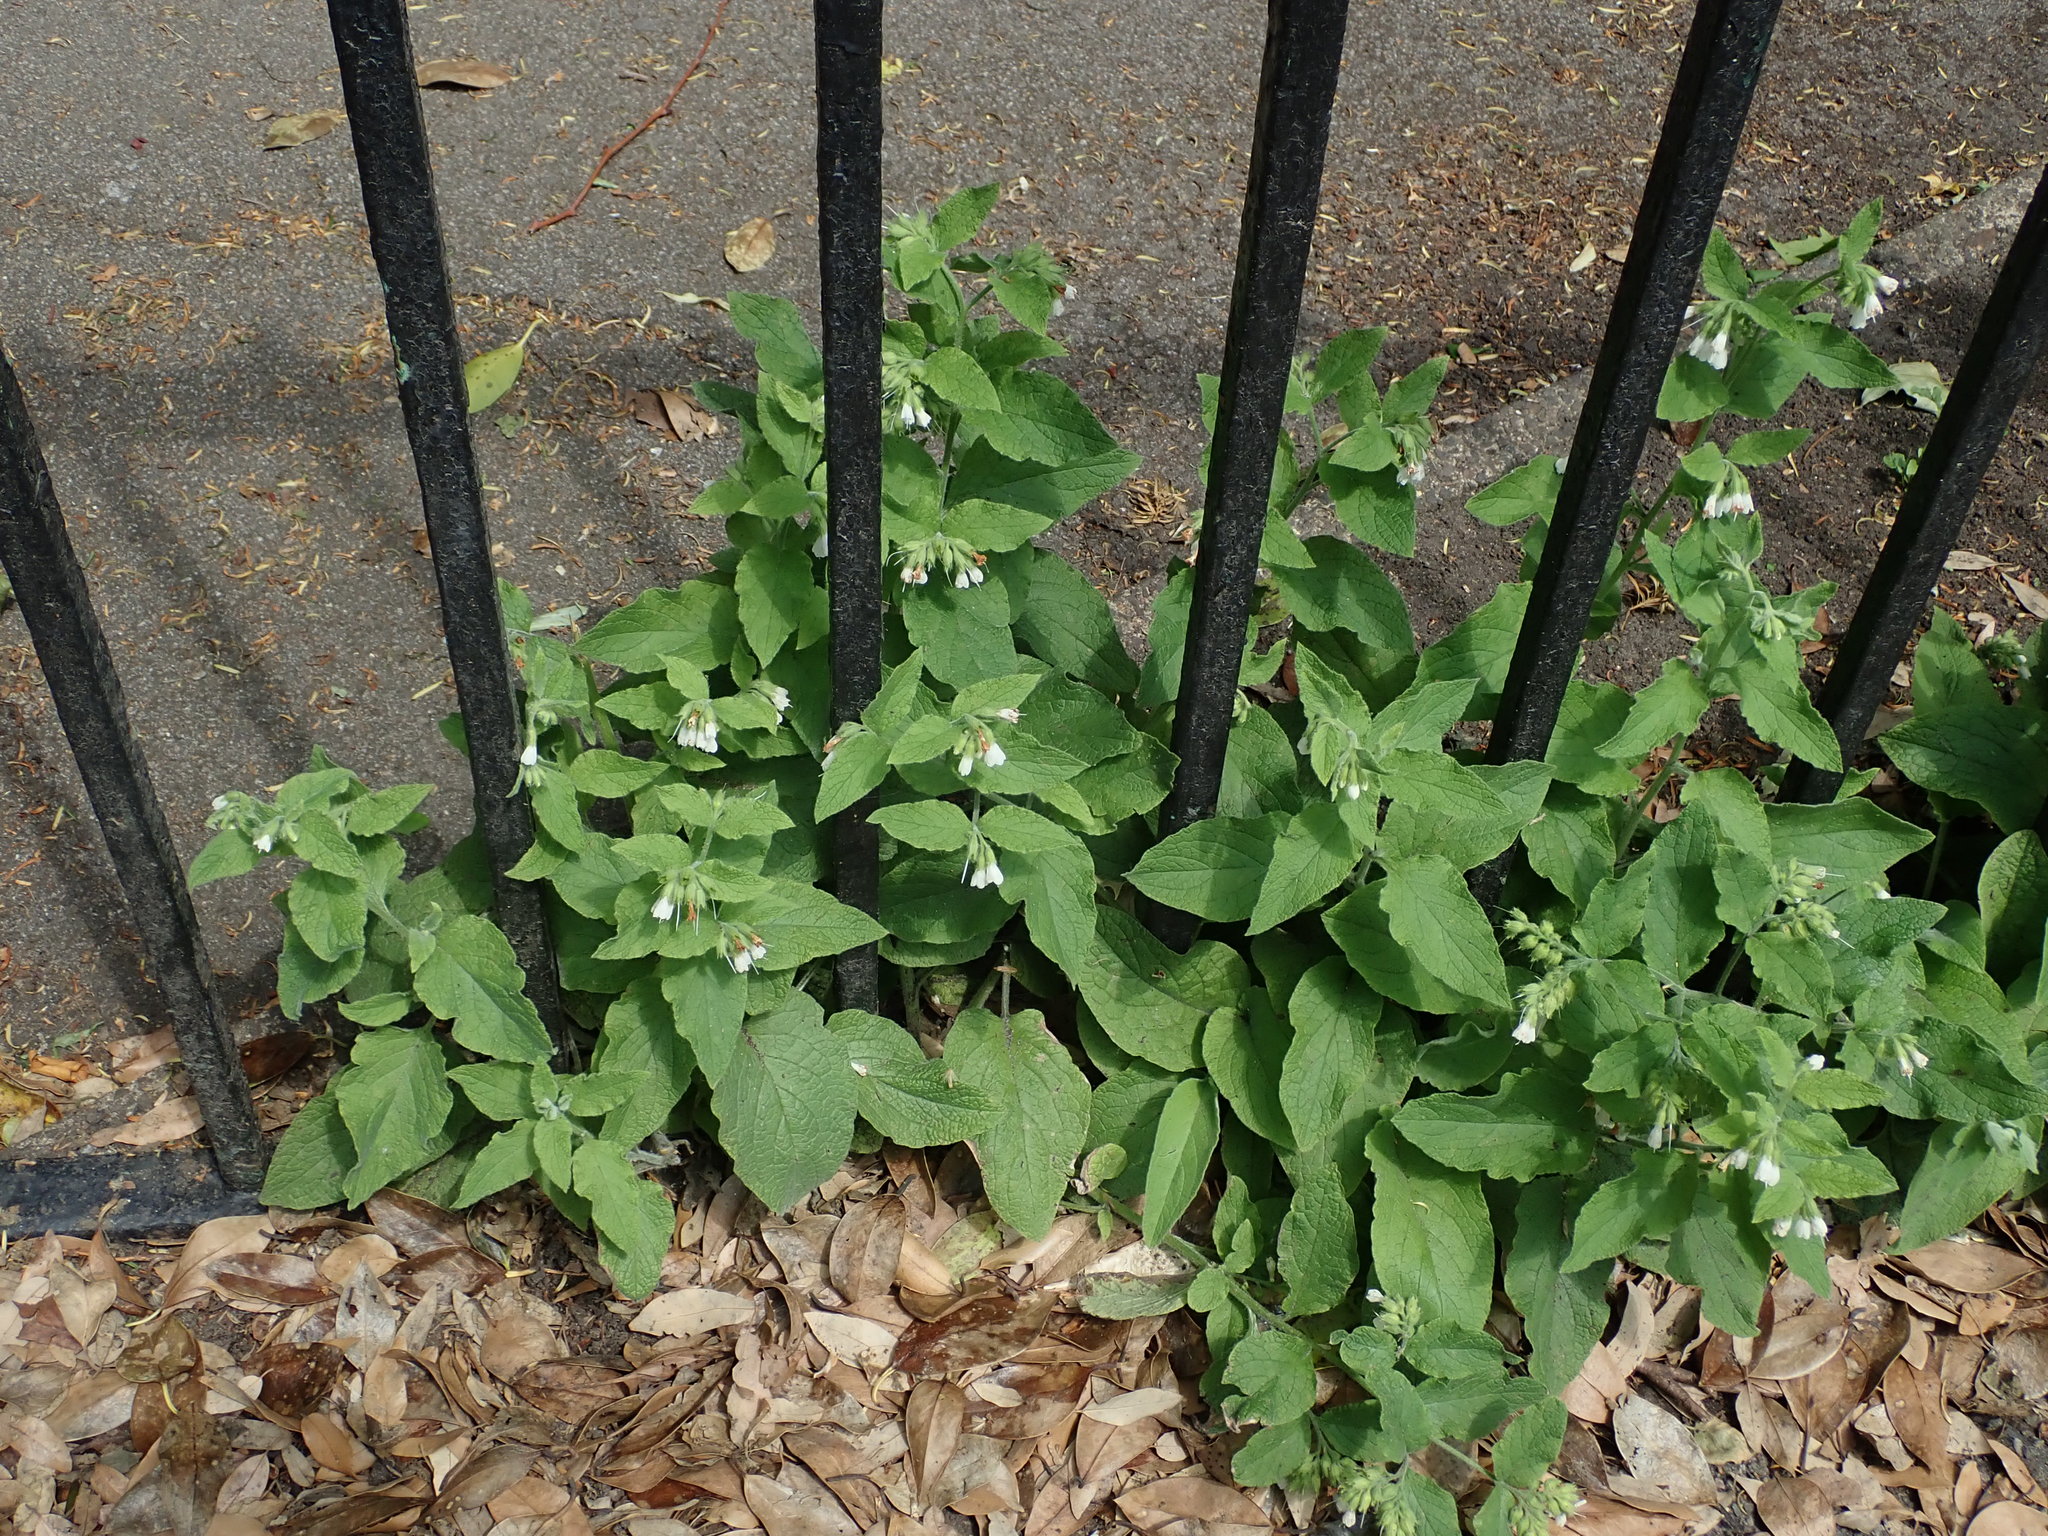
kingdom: Plantae
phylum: Tracheophyta
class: Magnoliopsida
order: Boraginales
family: Boraginaceae
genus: Symphytum
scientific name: Symphytum orientale
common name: White comfrey
